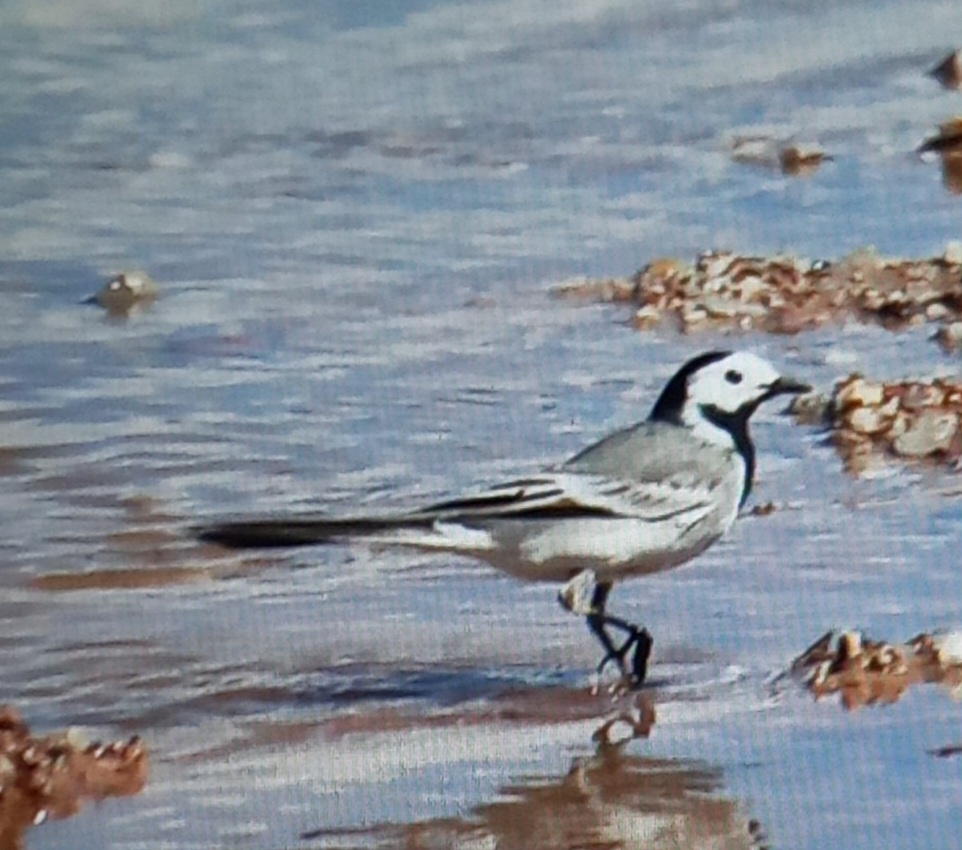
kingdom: Animalia
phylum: Chordata
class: Aves
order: Passeriformes
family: Motacillidae
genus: Motacilla
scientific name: Motacilla alba
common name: White wagtail
